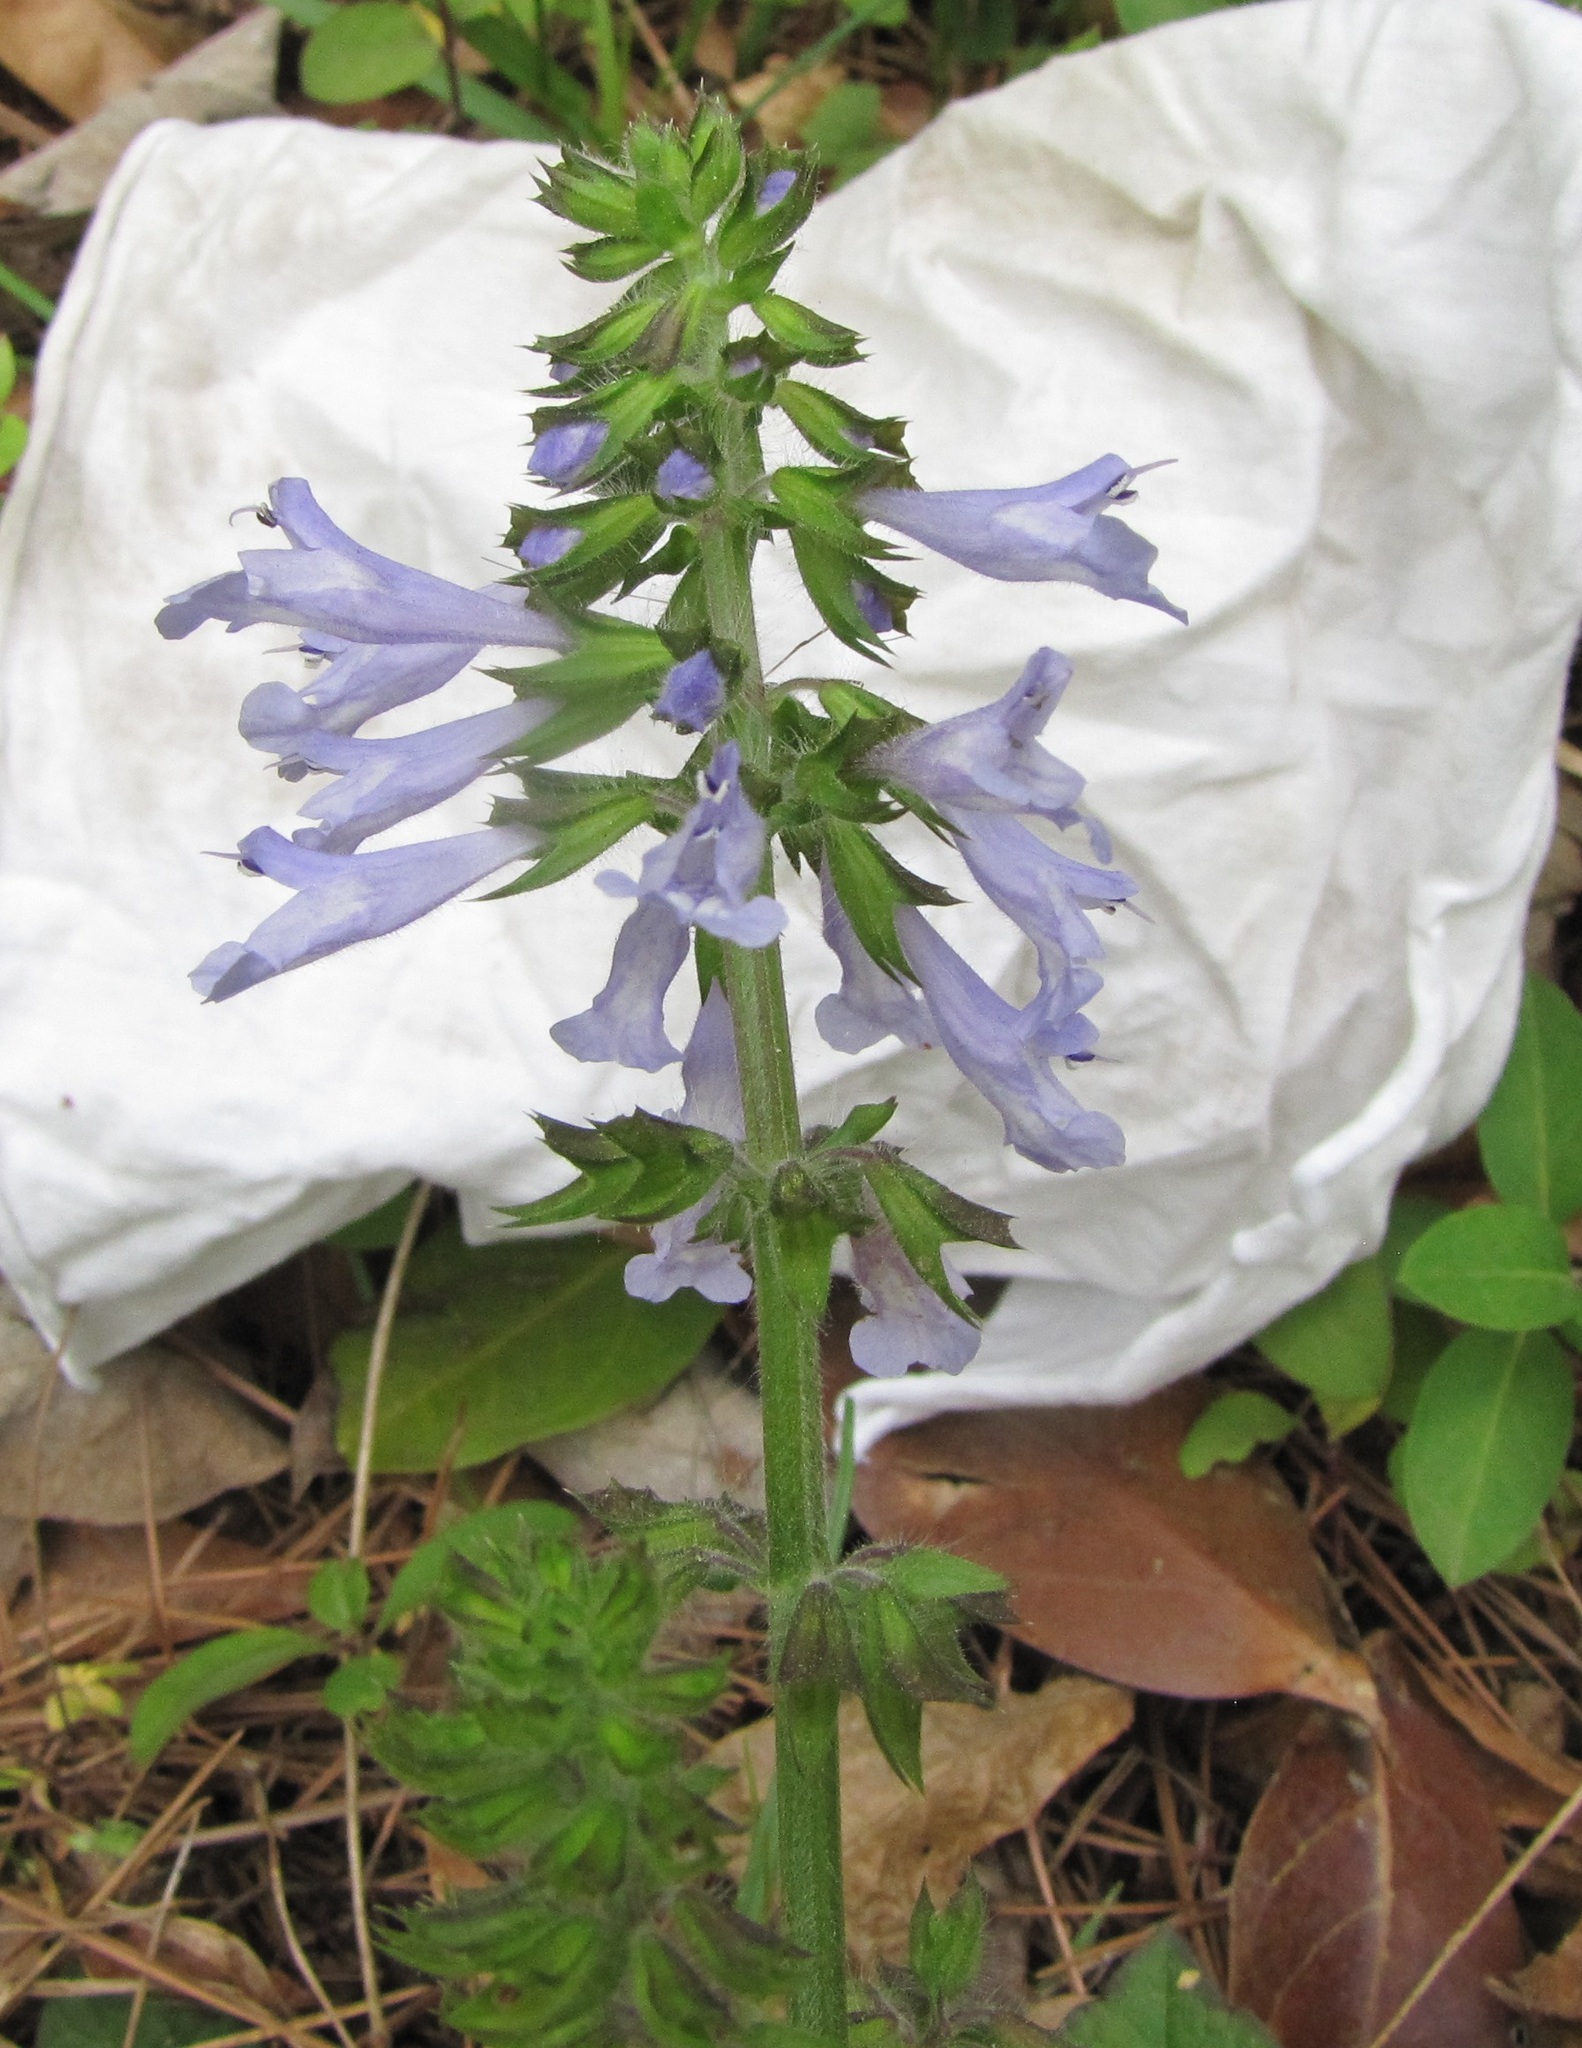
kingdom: Plantae
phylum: Tracheophyta
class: Magnoliopsida
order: Lamiales
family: Lamiaceae
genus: Salvia
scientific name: Salvia lyrata
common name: Cancerweed
